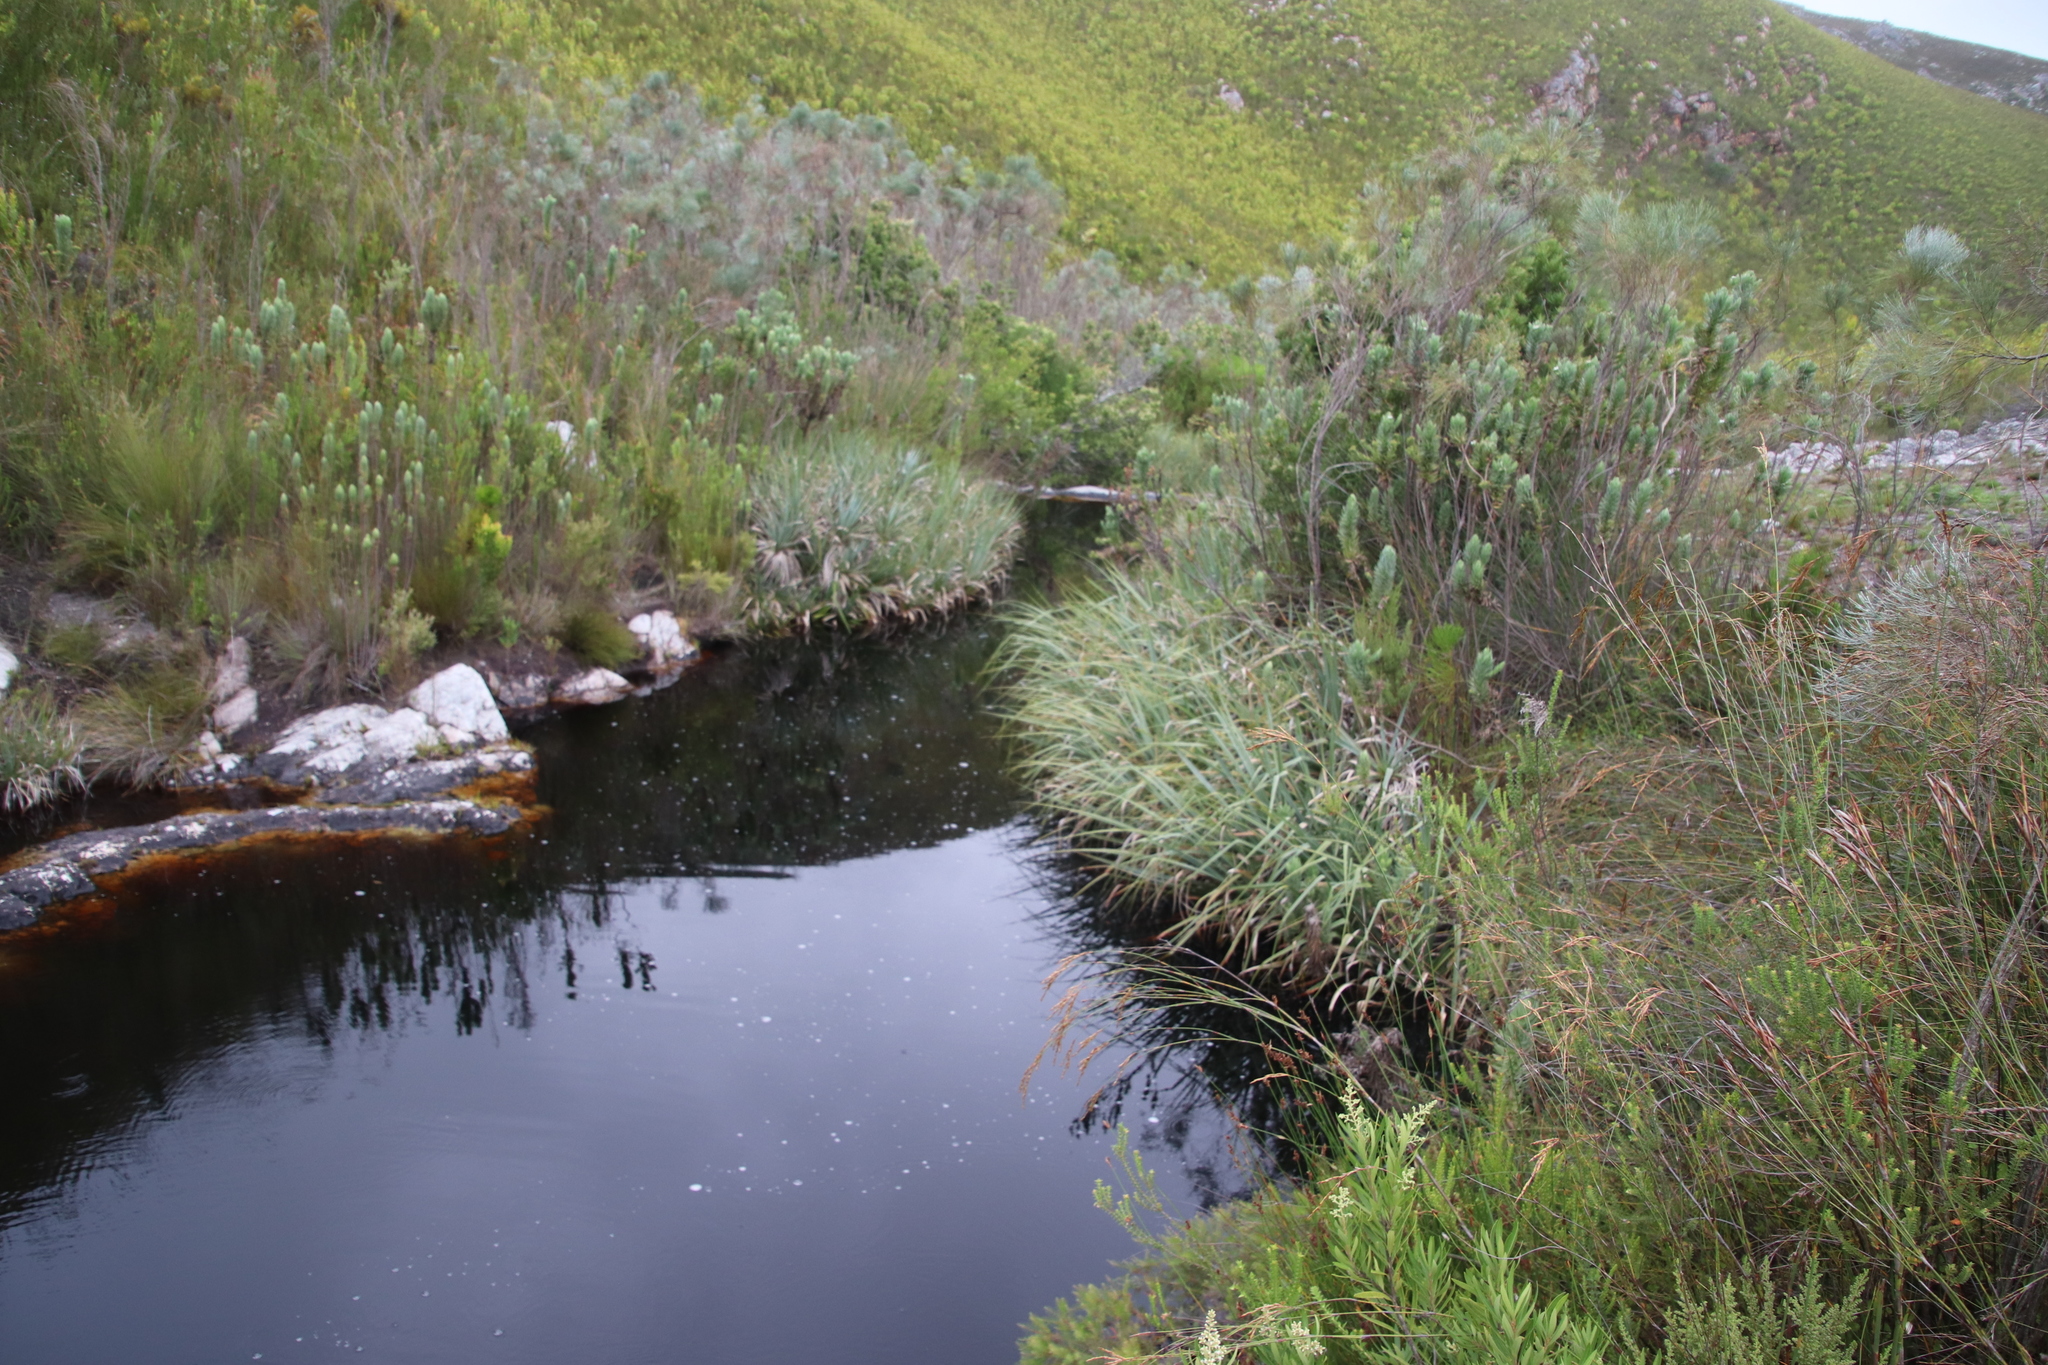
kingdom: Plantae
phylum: Tracheophyta
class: Liliopsida
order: Poales
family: Thurniaceae
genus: Prionium
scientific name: Prionium serratum
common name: Palmiet
